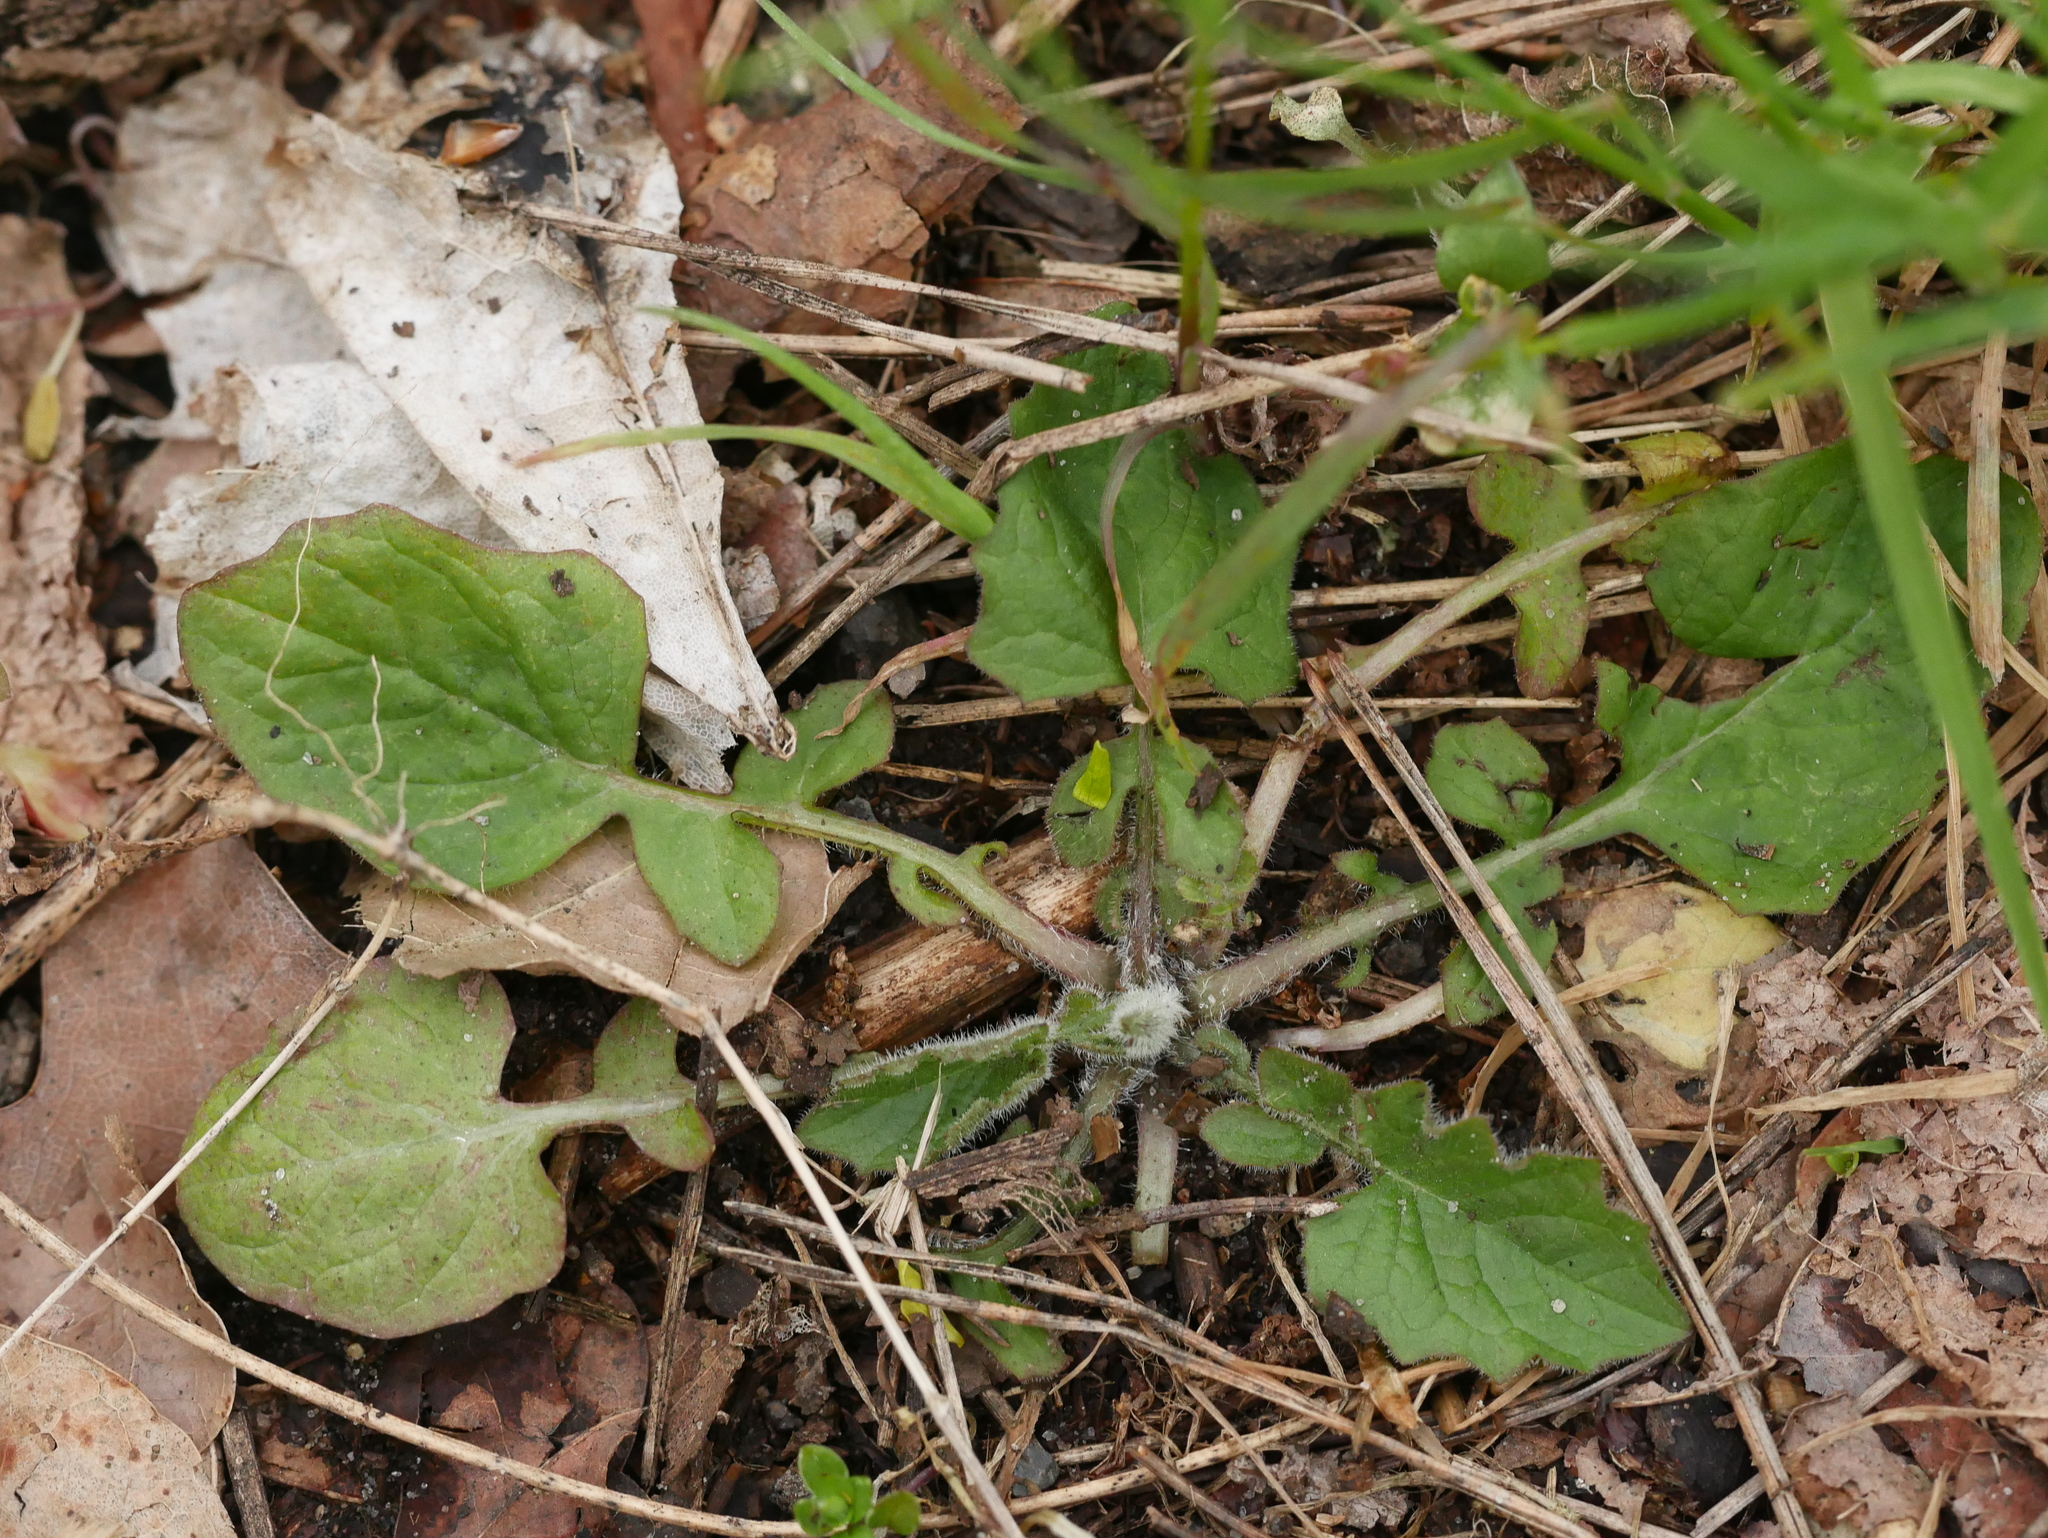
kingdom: Plantae
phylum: Tracheophyta
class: Magnoliopsida
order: Asterales
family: Asteraceae
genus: Lapsana
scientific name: Lapsana communis
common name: Nipplewort
